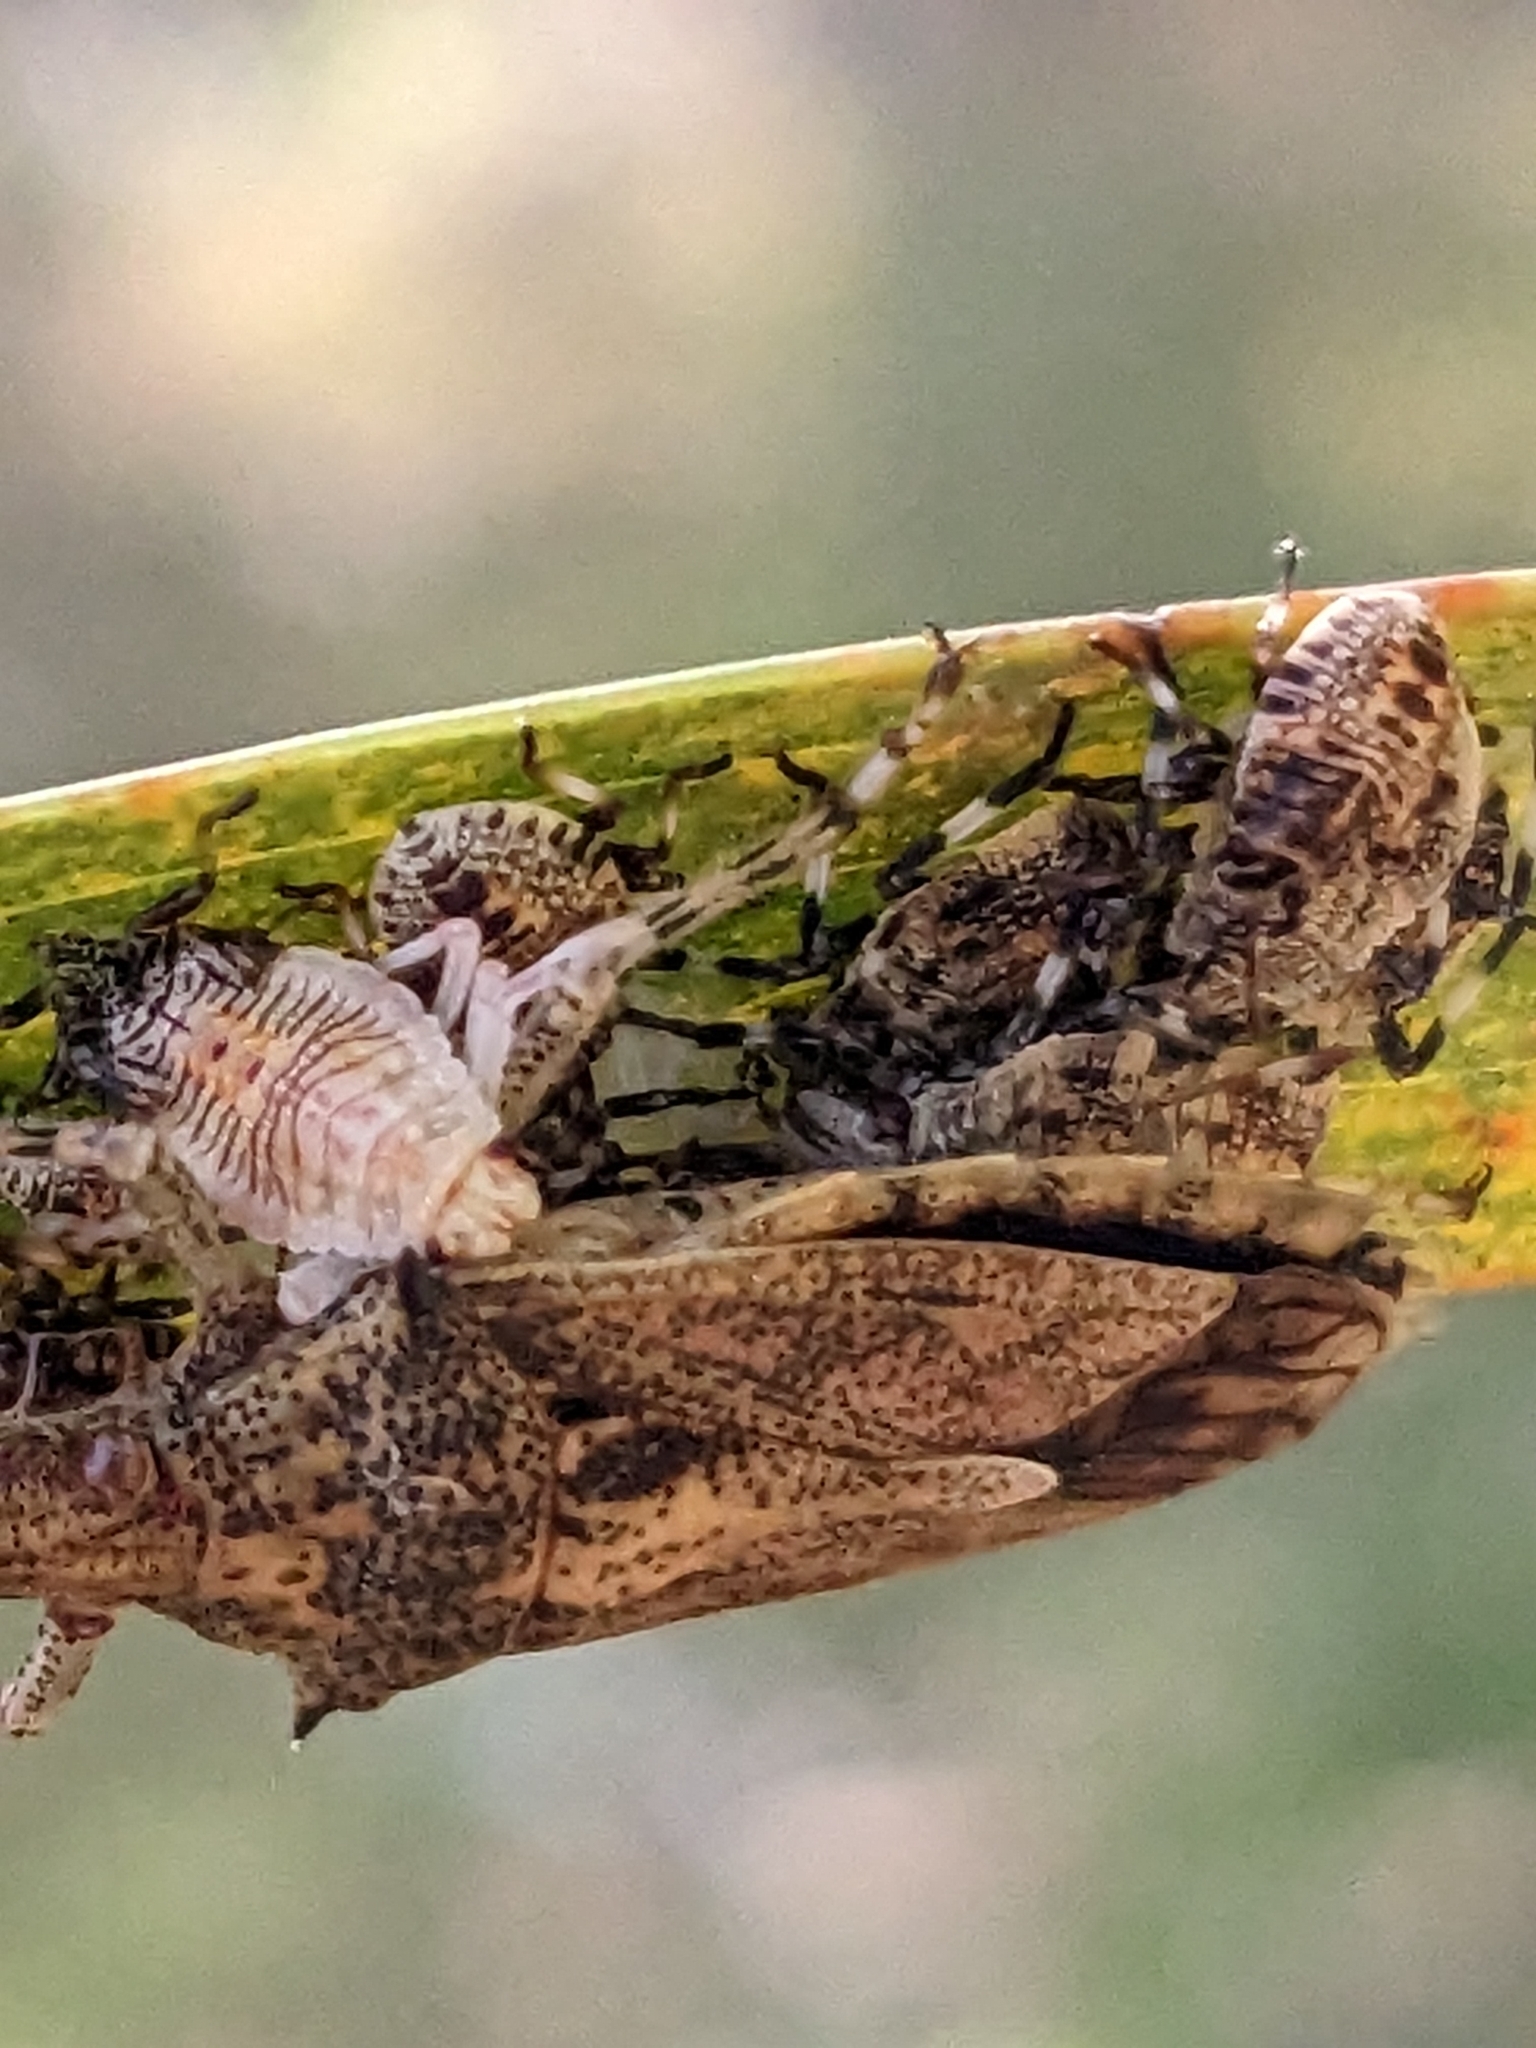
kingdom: Animalia
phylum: Arthropoda
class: Insecta
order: Hemiptera
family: Pentatomidae
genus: Bromocoris
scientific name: Bromocoris
